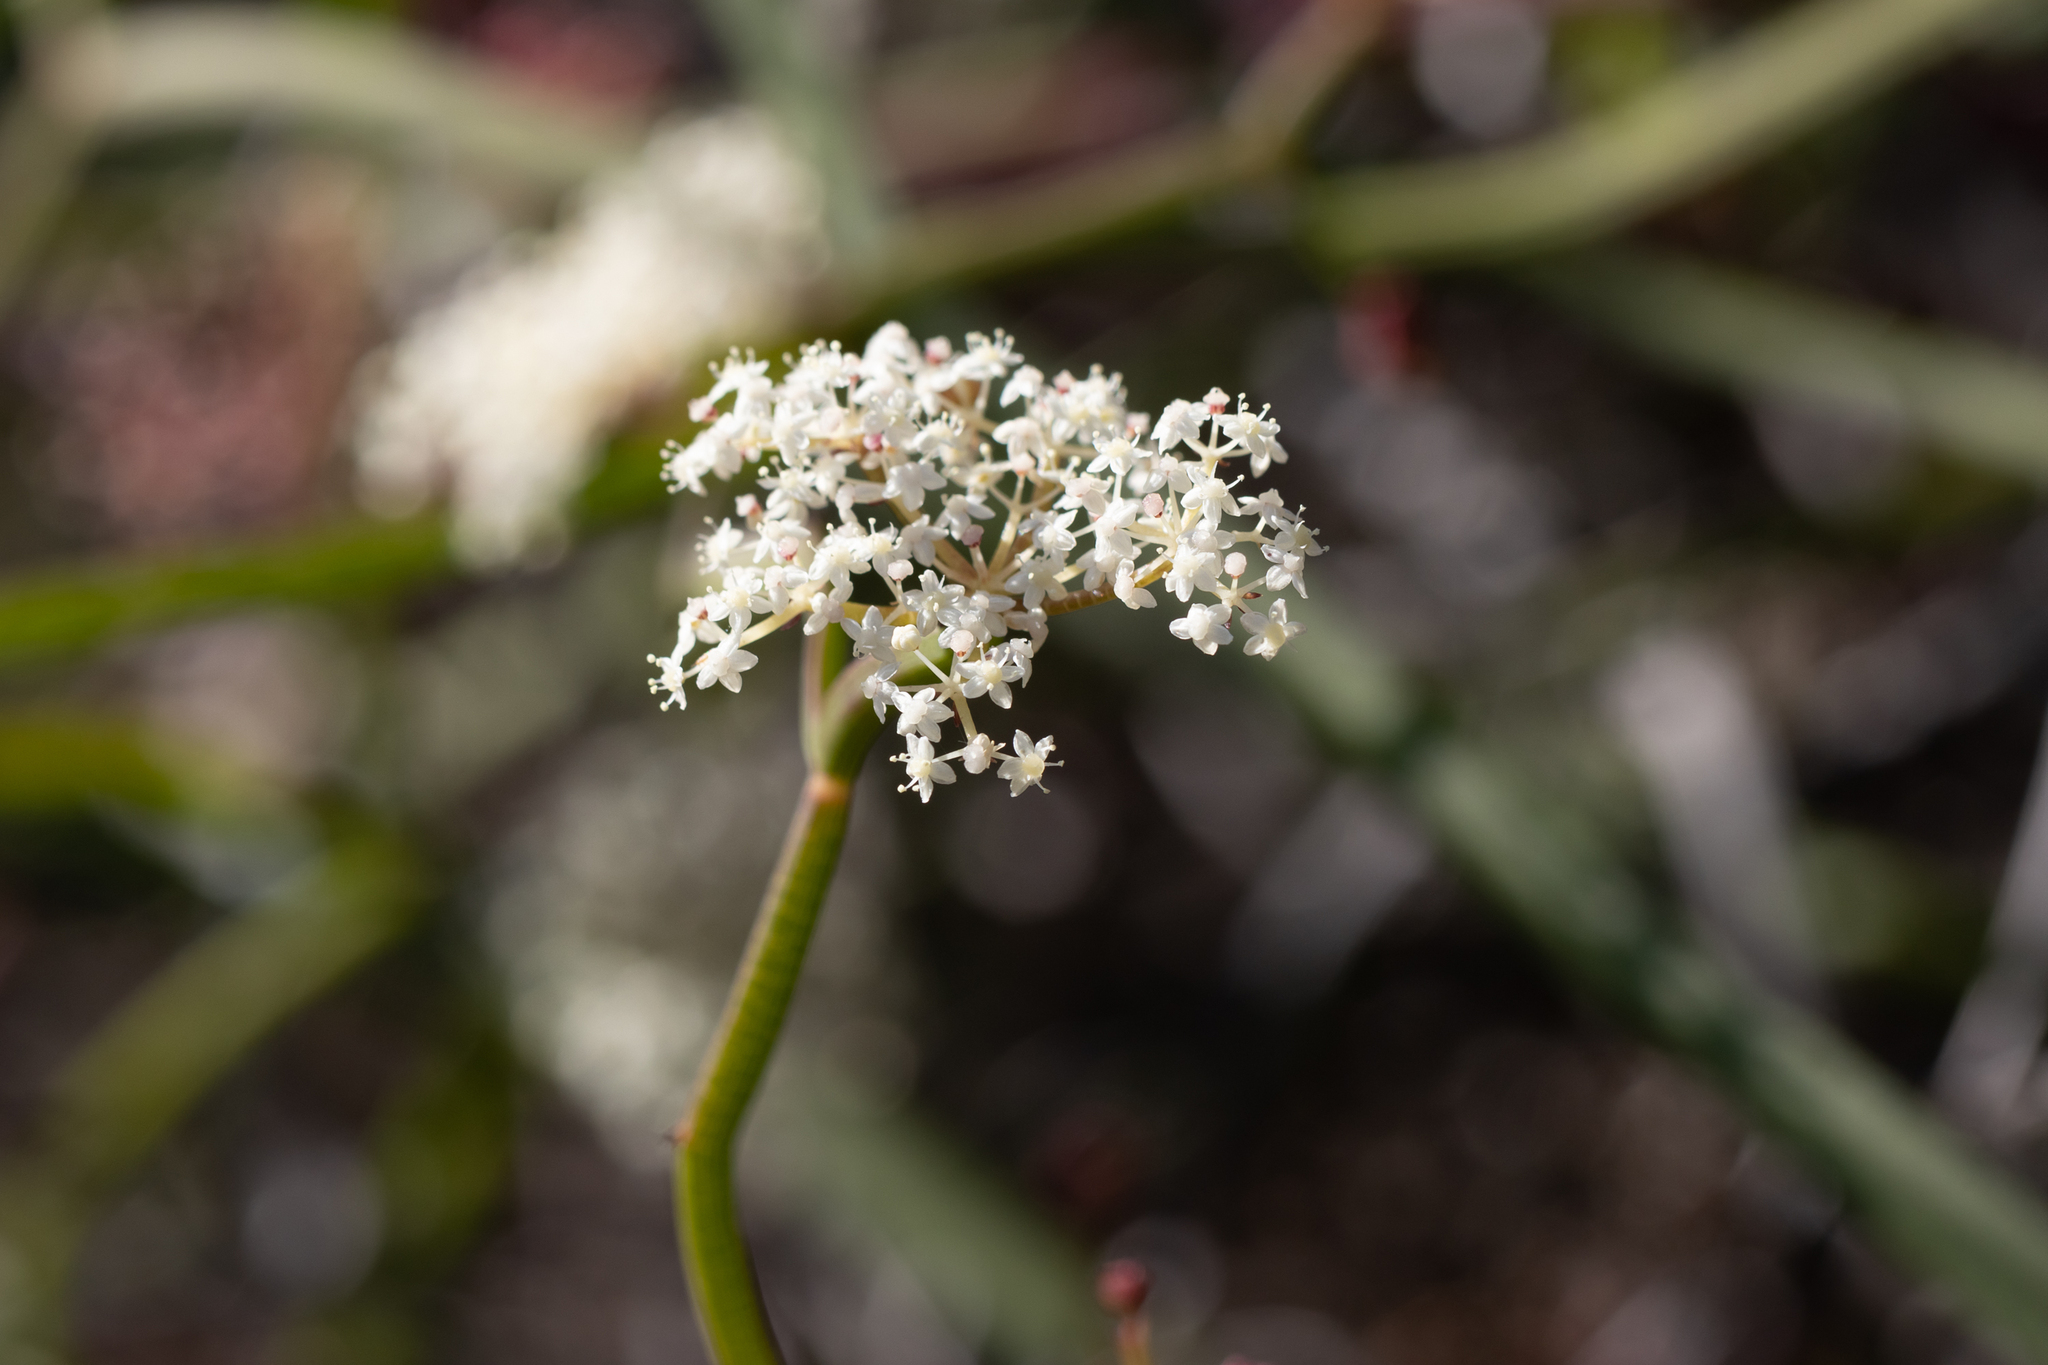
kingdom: Plantae
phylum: Tracheophyta
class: Magnoliopsida
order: Apiales
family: Apiaceae
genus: Platysace
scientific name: Platysace compressa
